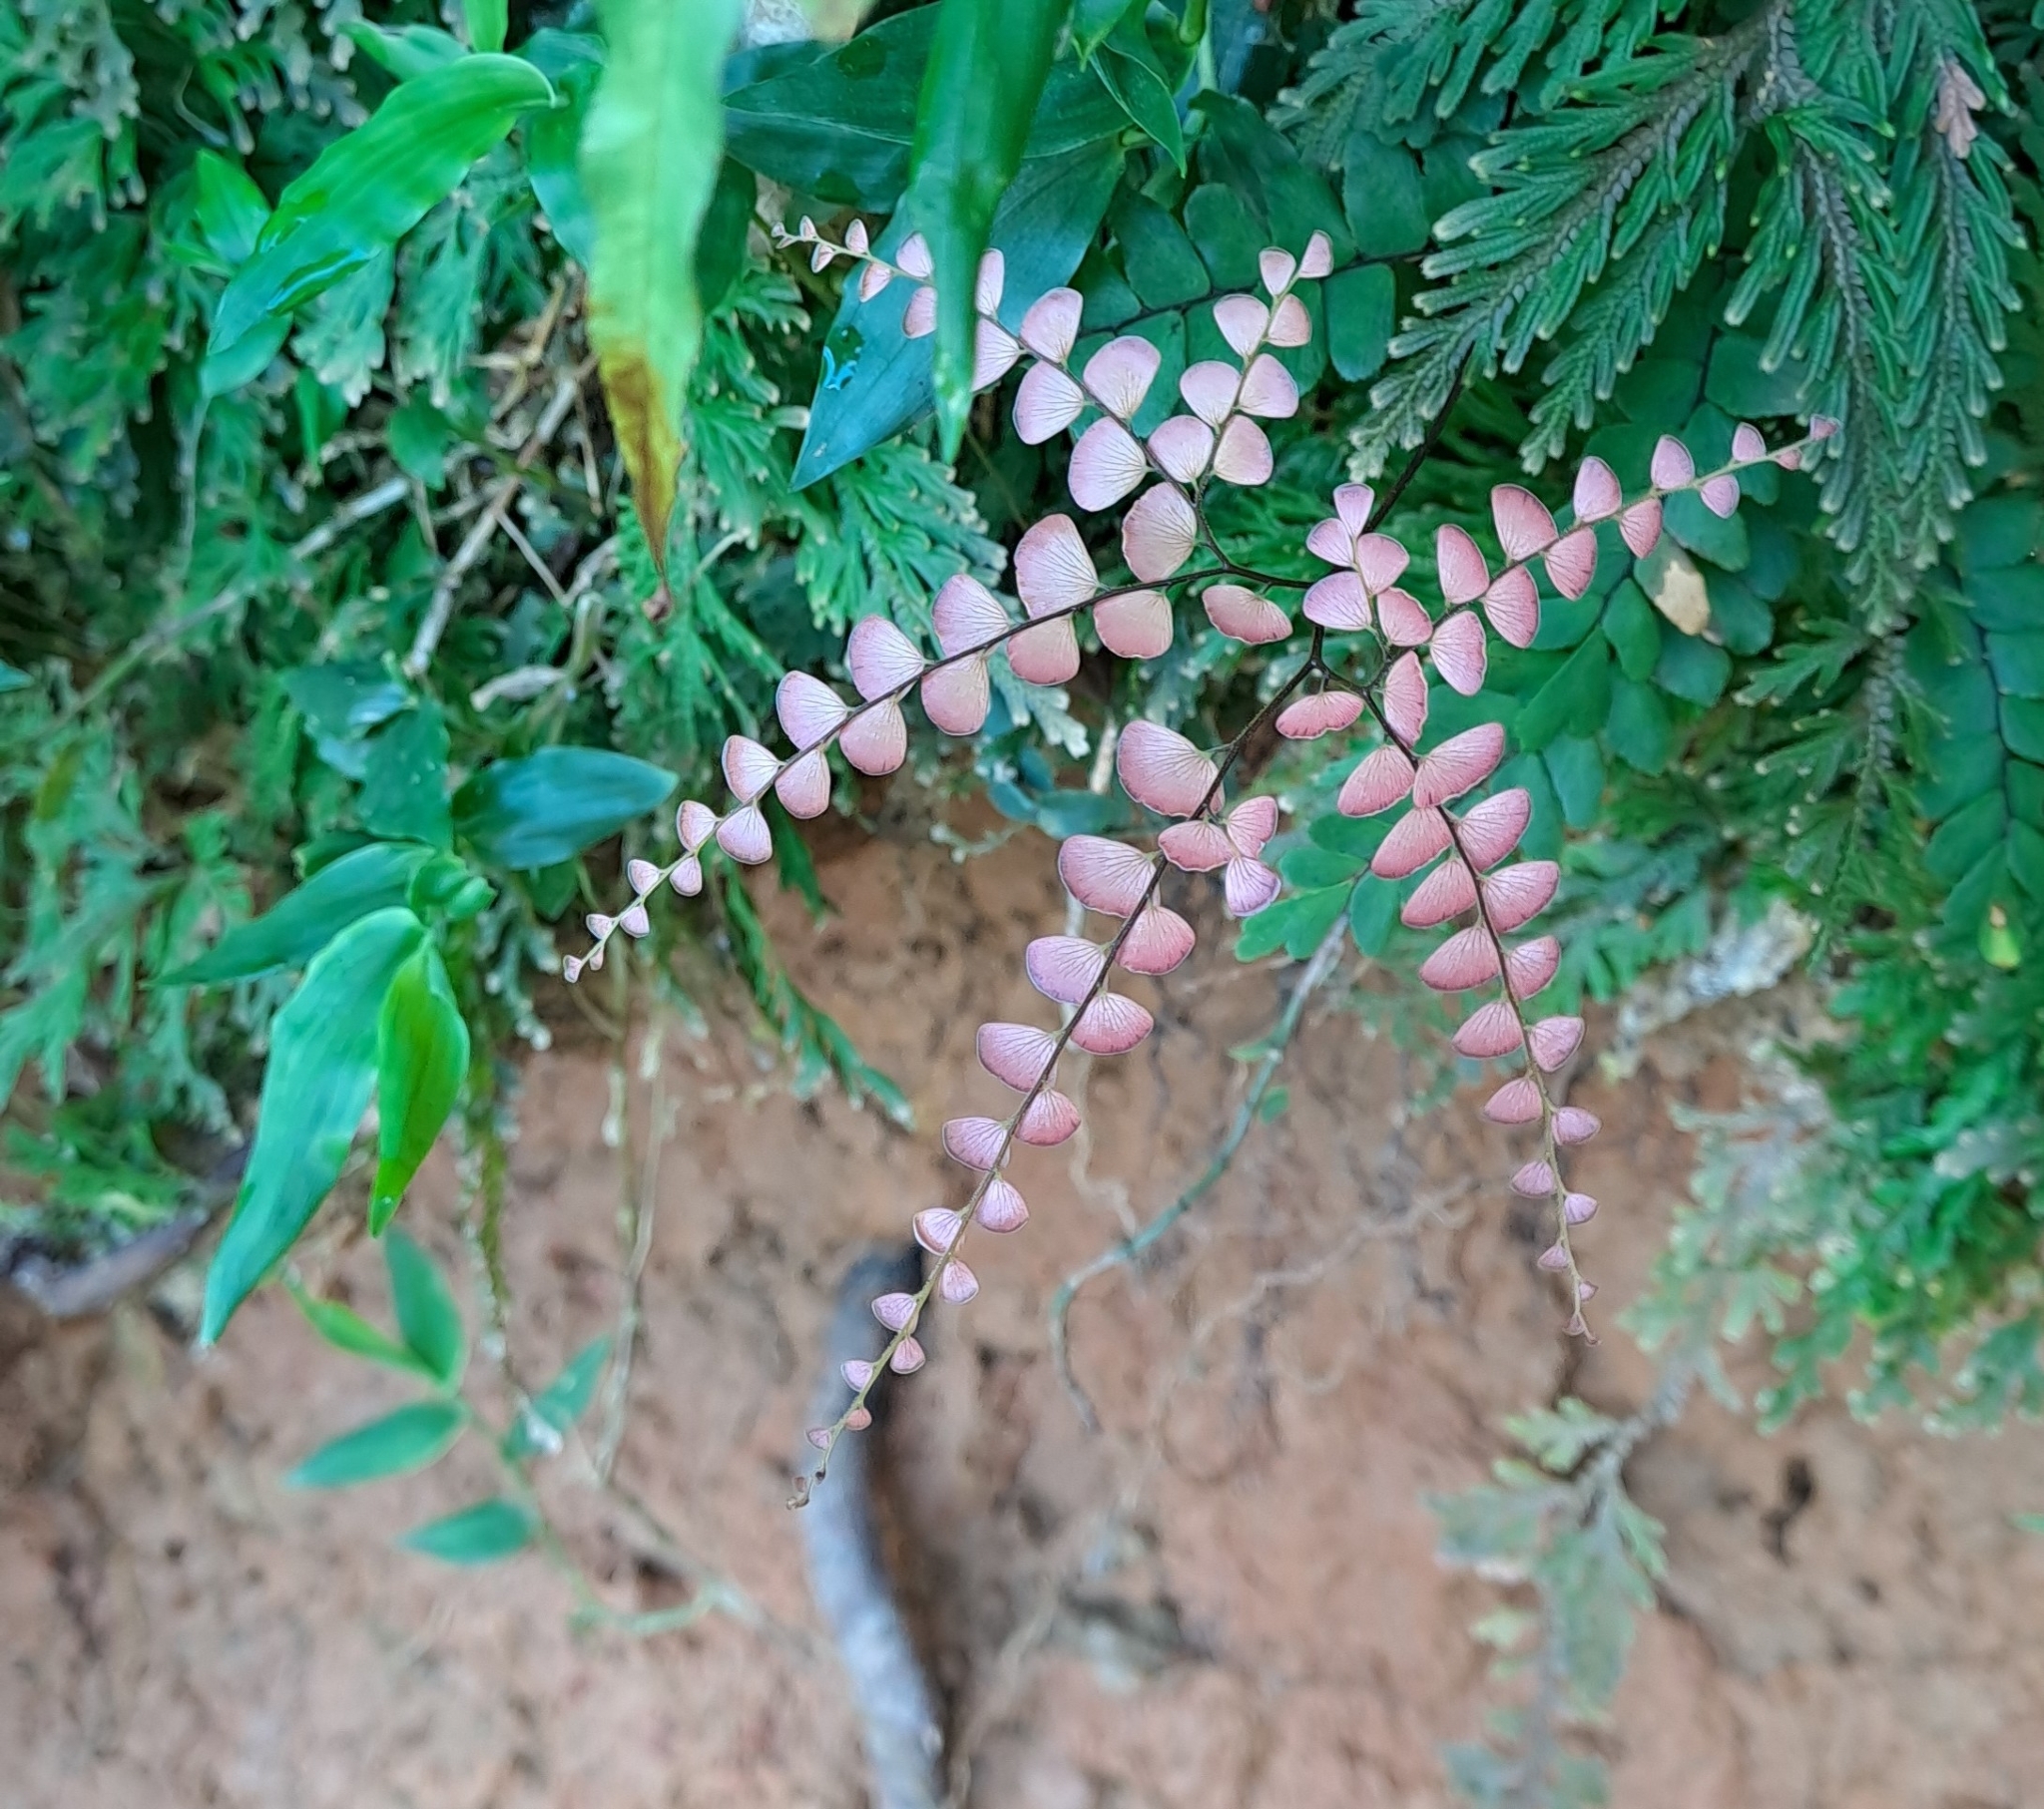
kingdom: Plantae
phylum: Tracheophyta
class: Polypodiopsida
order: Polypodiales
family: Pteridaceae
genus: Adiantum
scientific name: Adiantum flabellulatum
